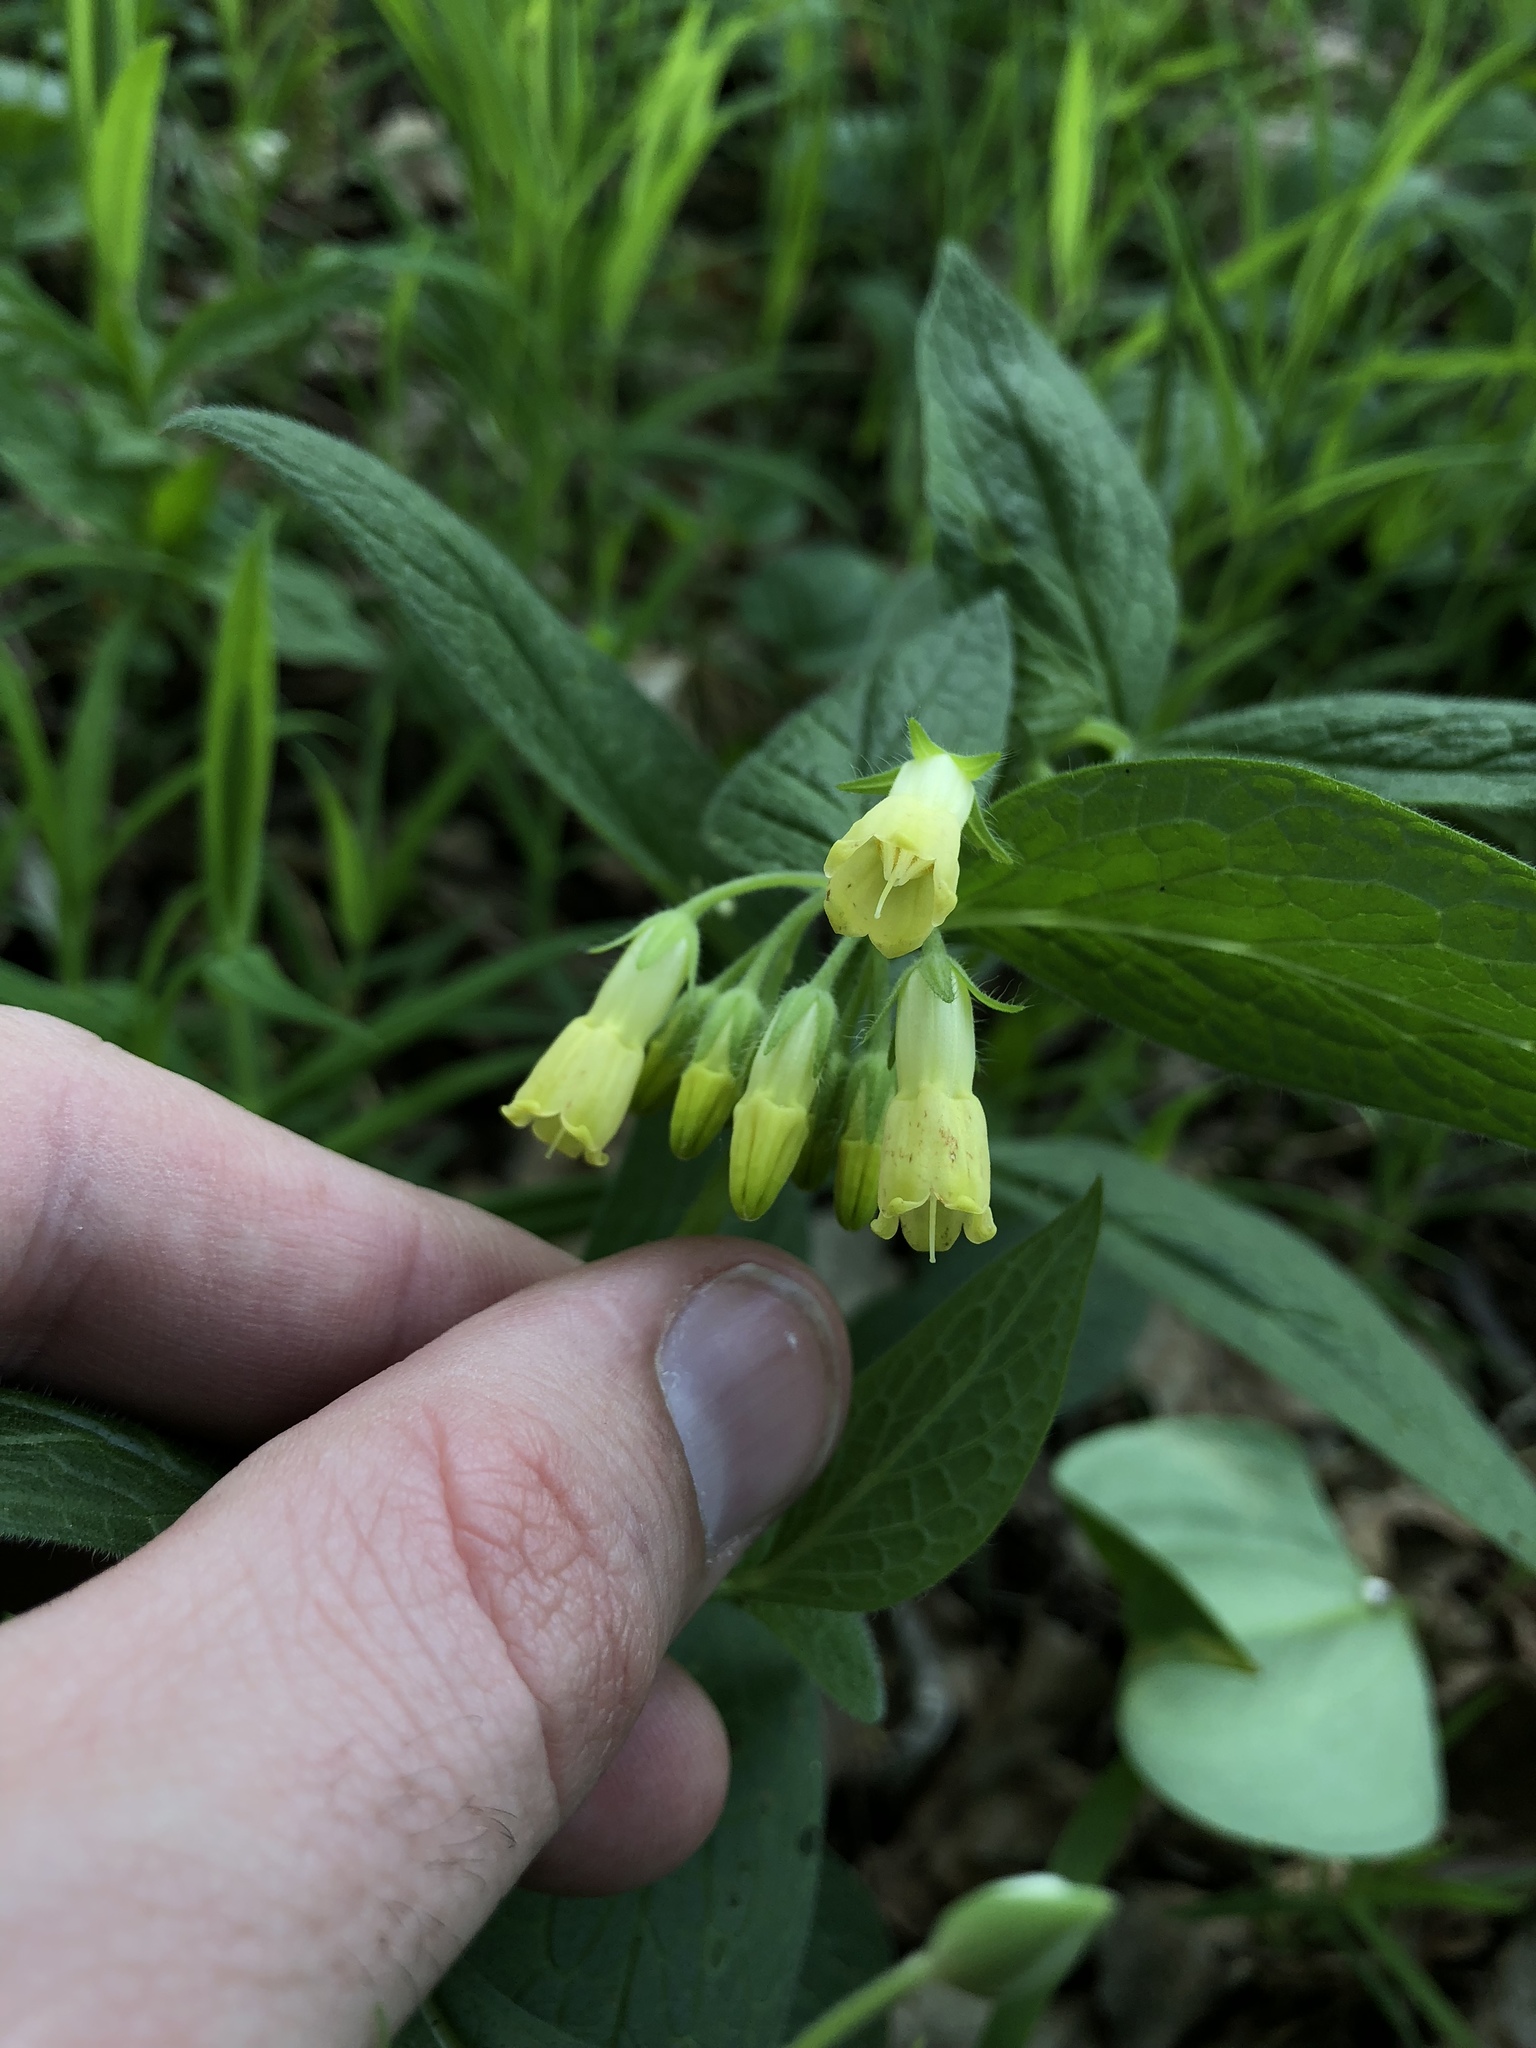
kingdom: Plantae
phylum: Tracheophyta
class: Magnoliopsida
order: Boraginales
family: Boraginaceae
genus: Symphytum
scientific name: Symphytum tuberosum
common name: Tuberous comfrey
